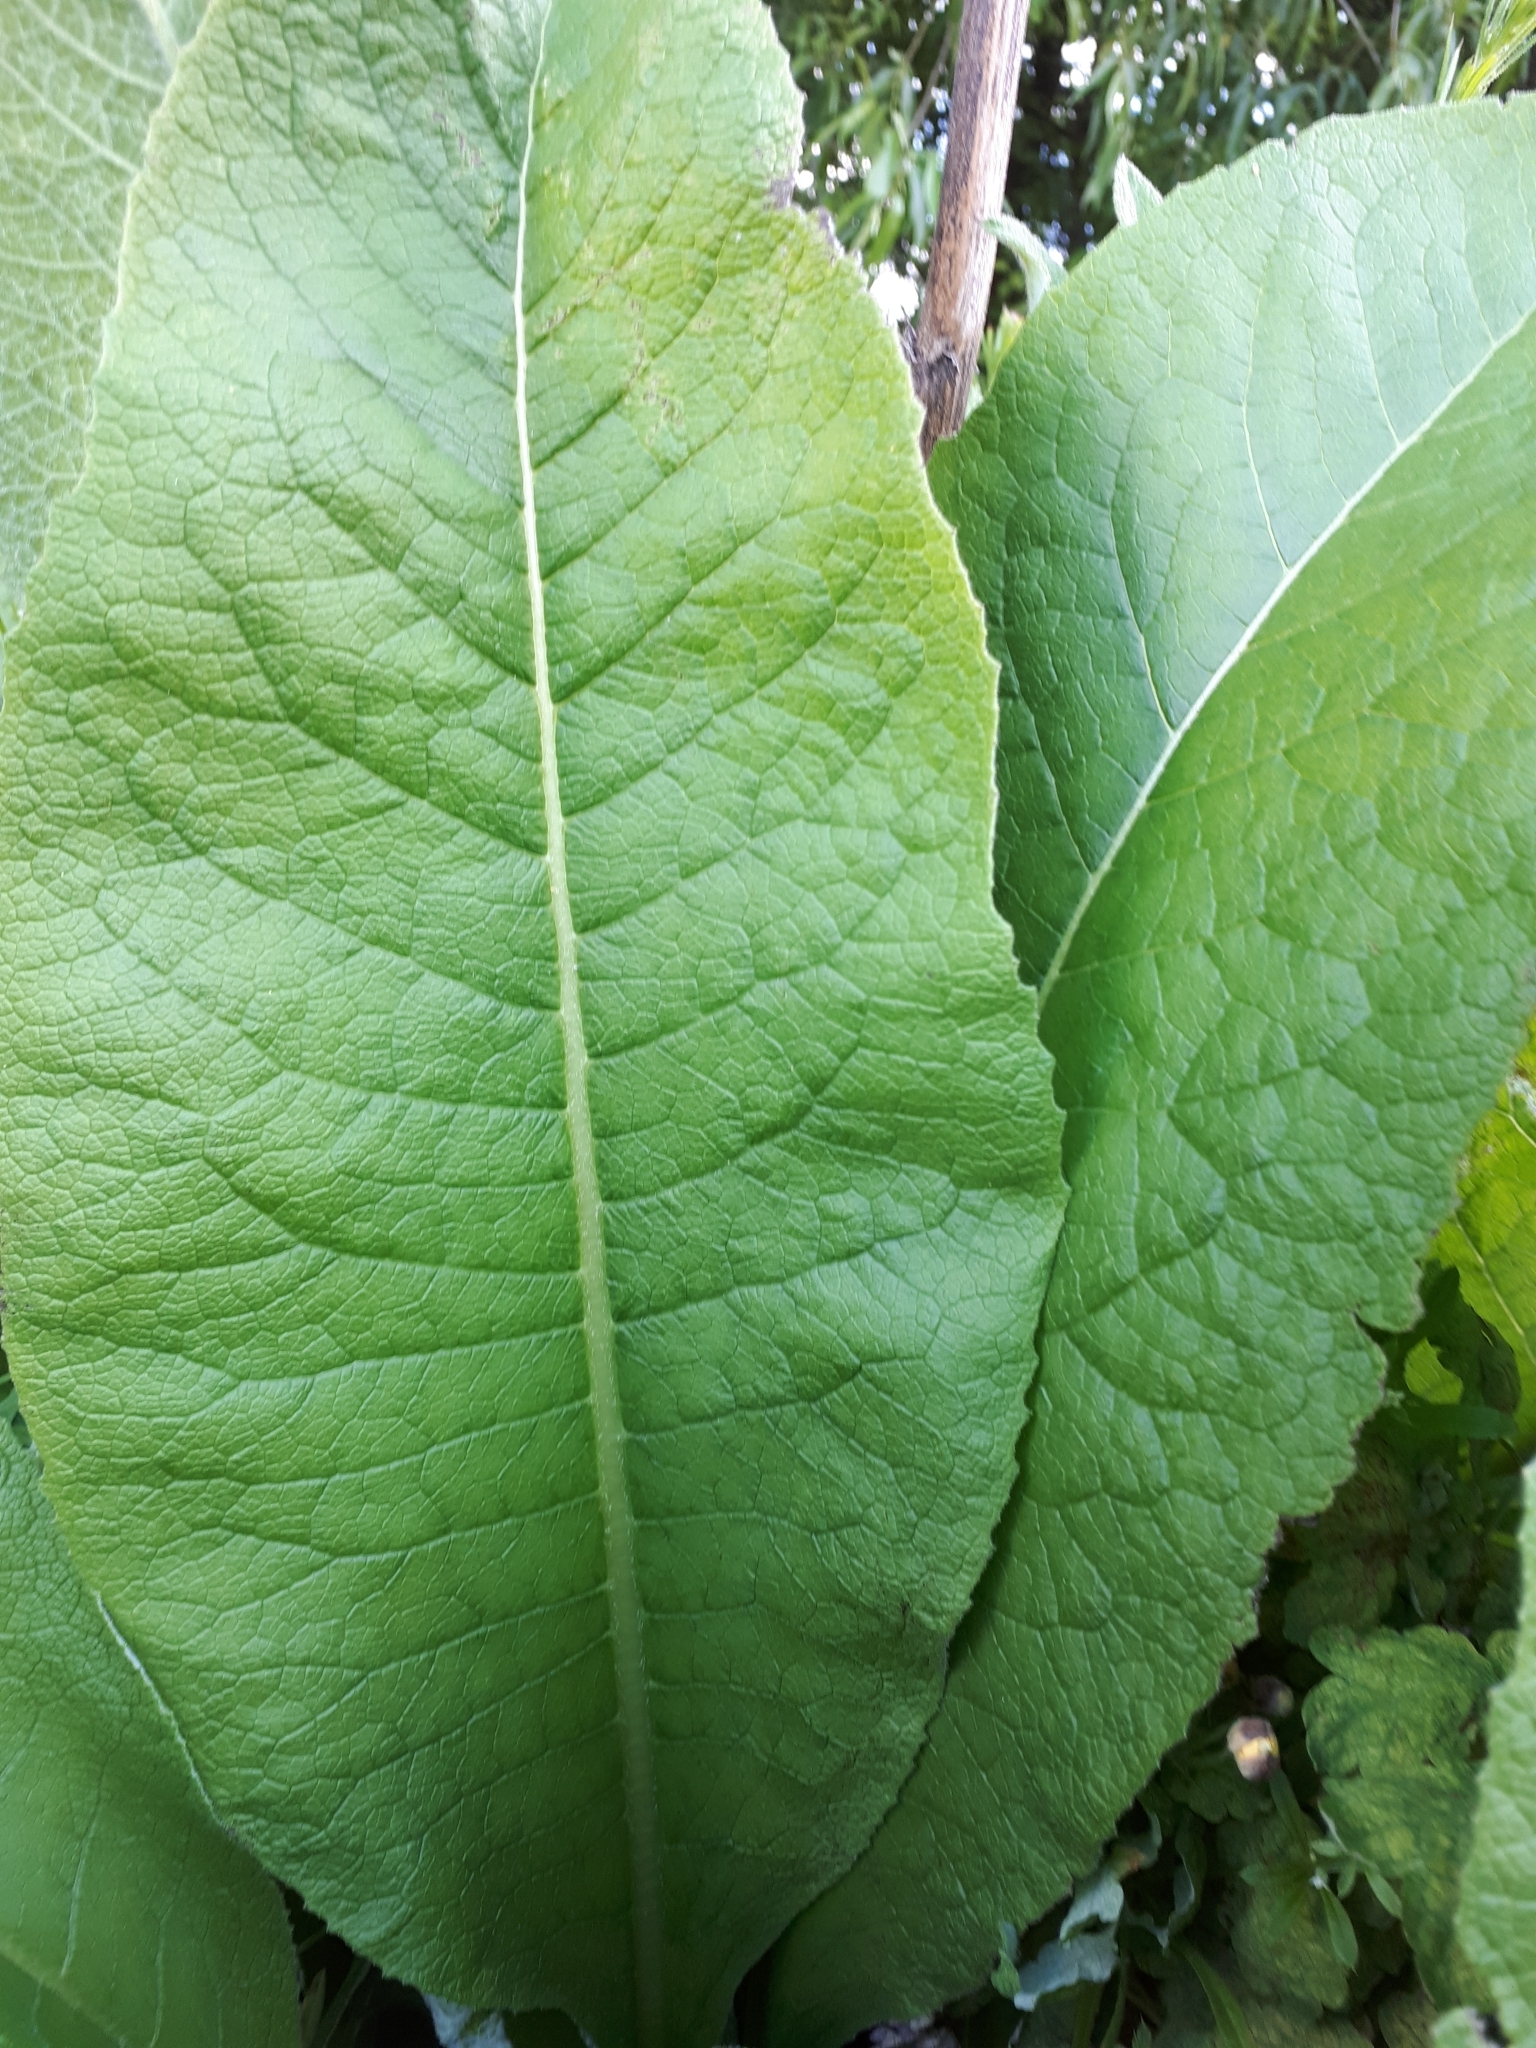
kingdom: Plantae
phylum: Tracheophyta
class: Magnoliopsida
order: Asterales
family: Asteraceae
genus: Inula
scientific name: Inula helenium
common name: Elecampane
